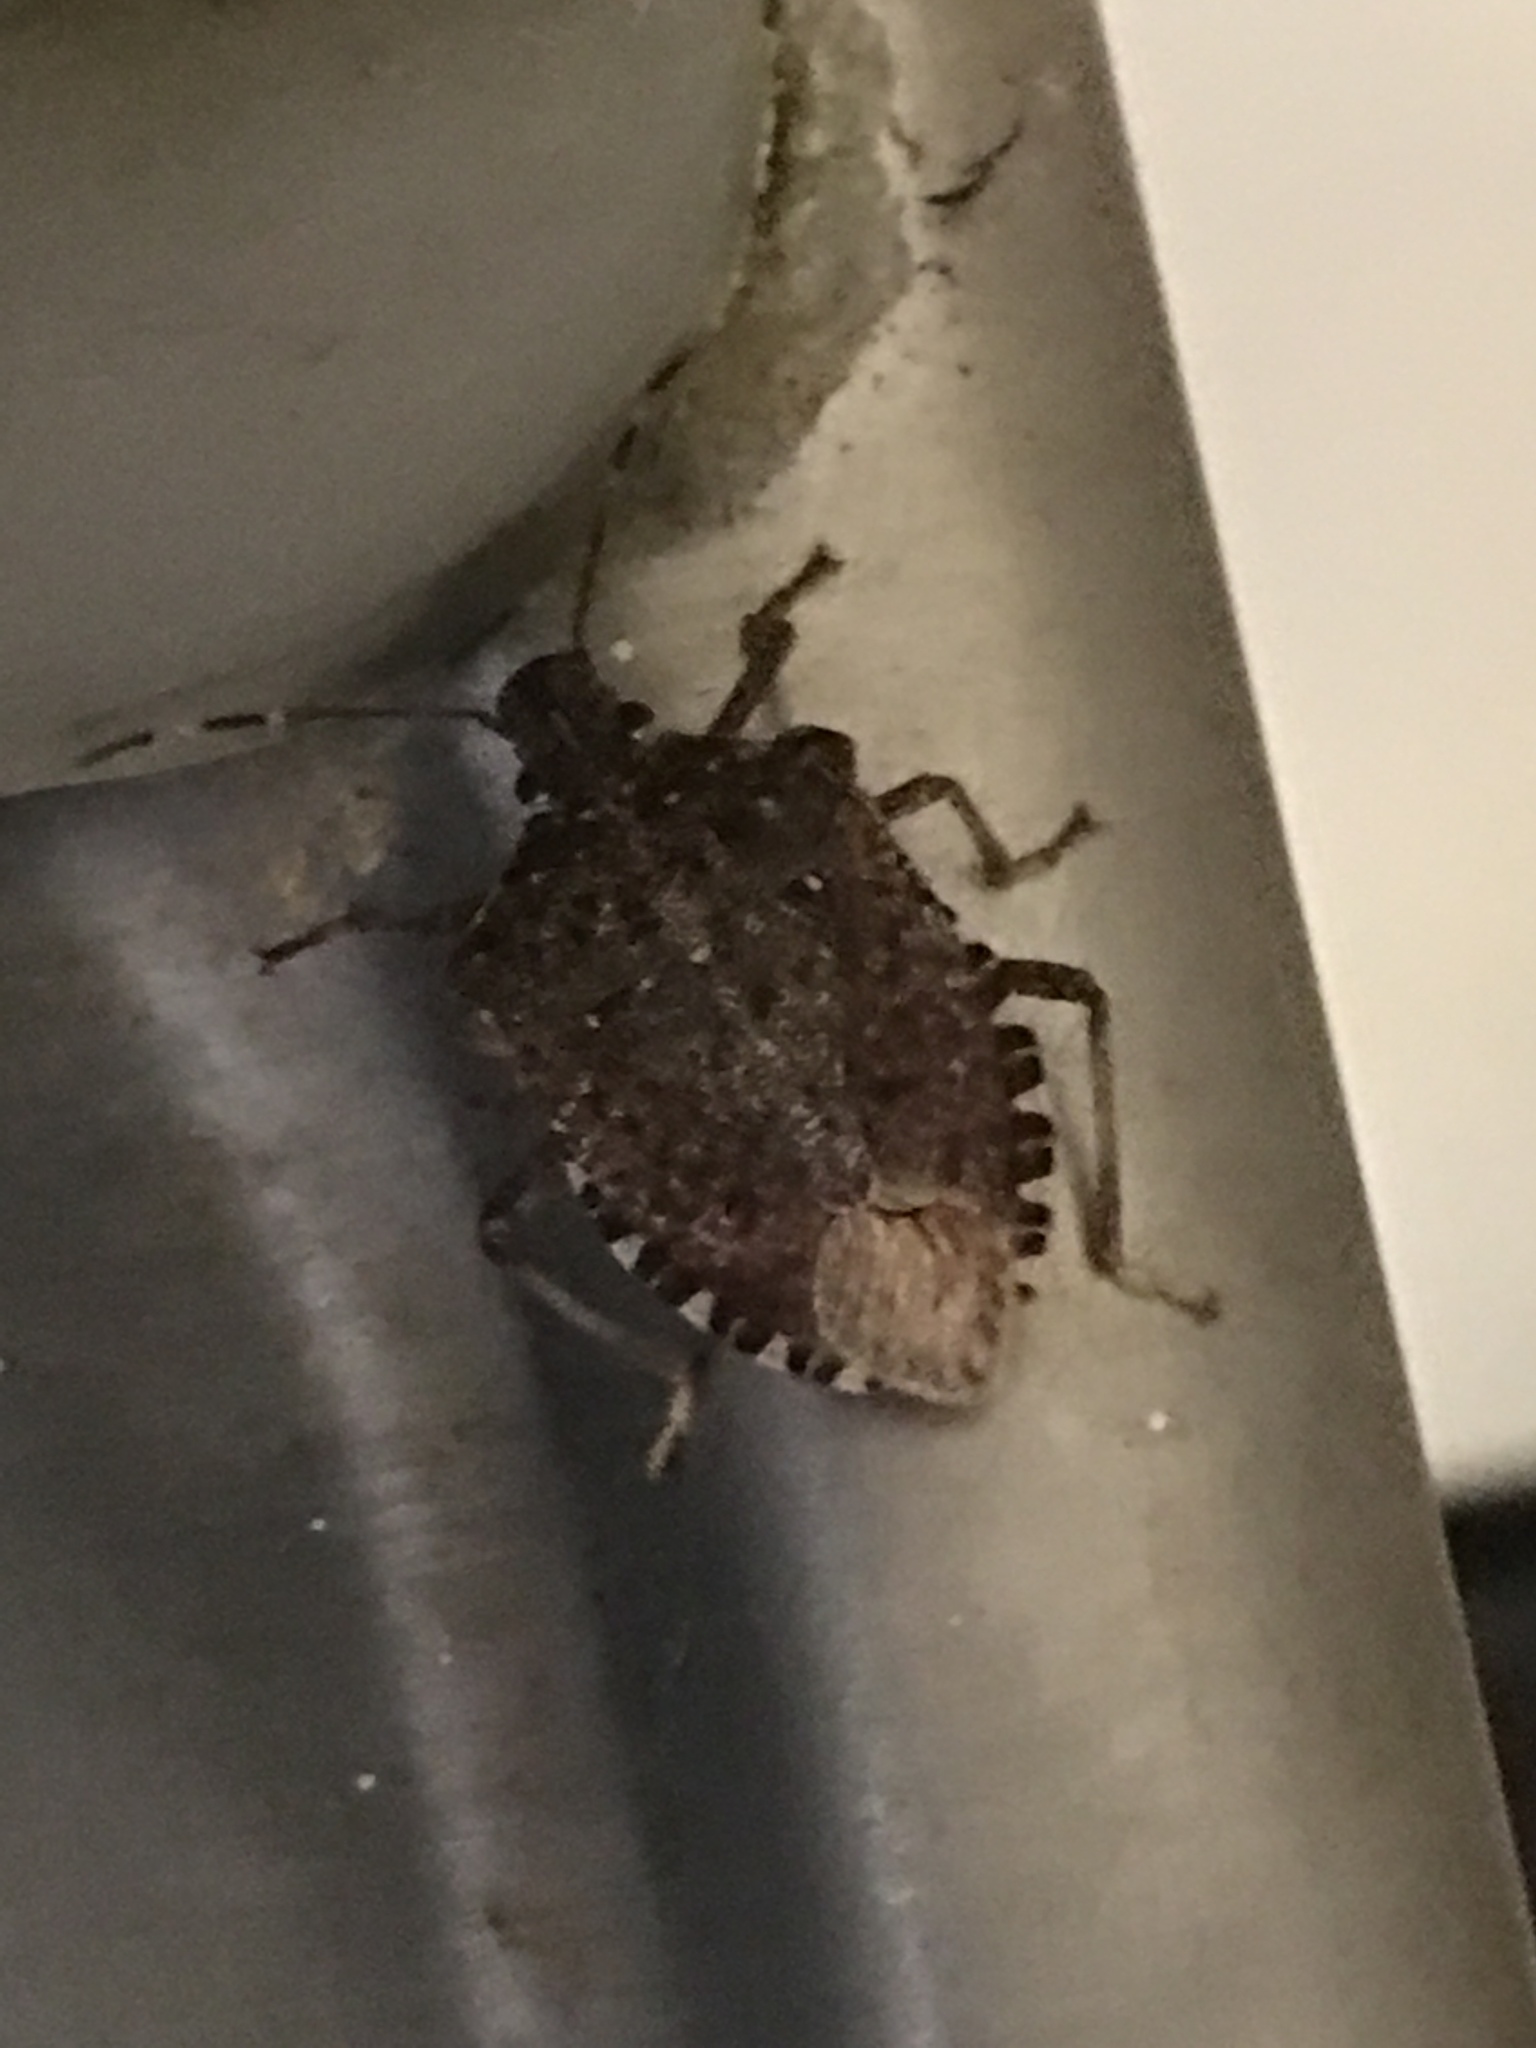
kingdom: Animalia
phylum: Arthropoda
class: Insecta
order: Hemiptera
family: Pentatomidae
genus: Halyomorpha
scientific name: Halyomorpha halys
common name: Brown marmorated stink bug
